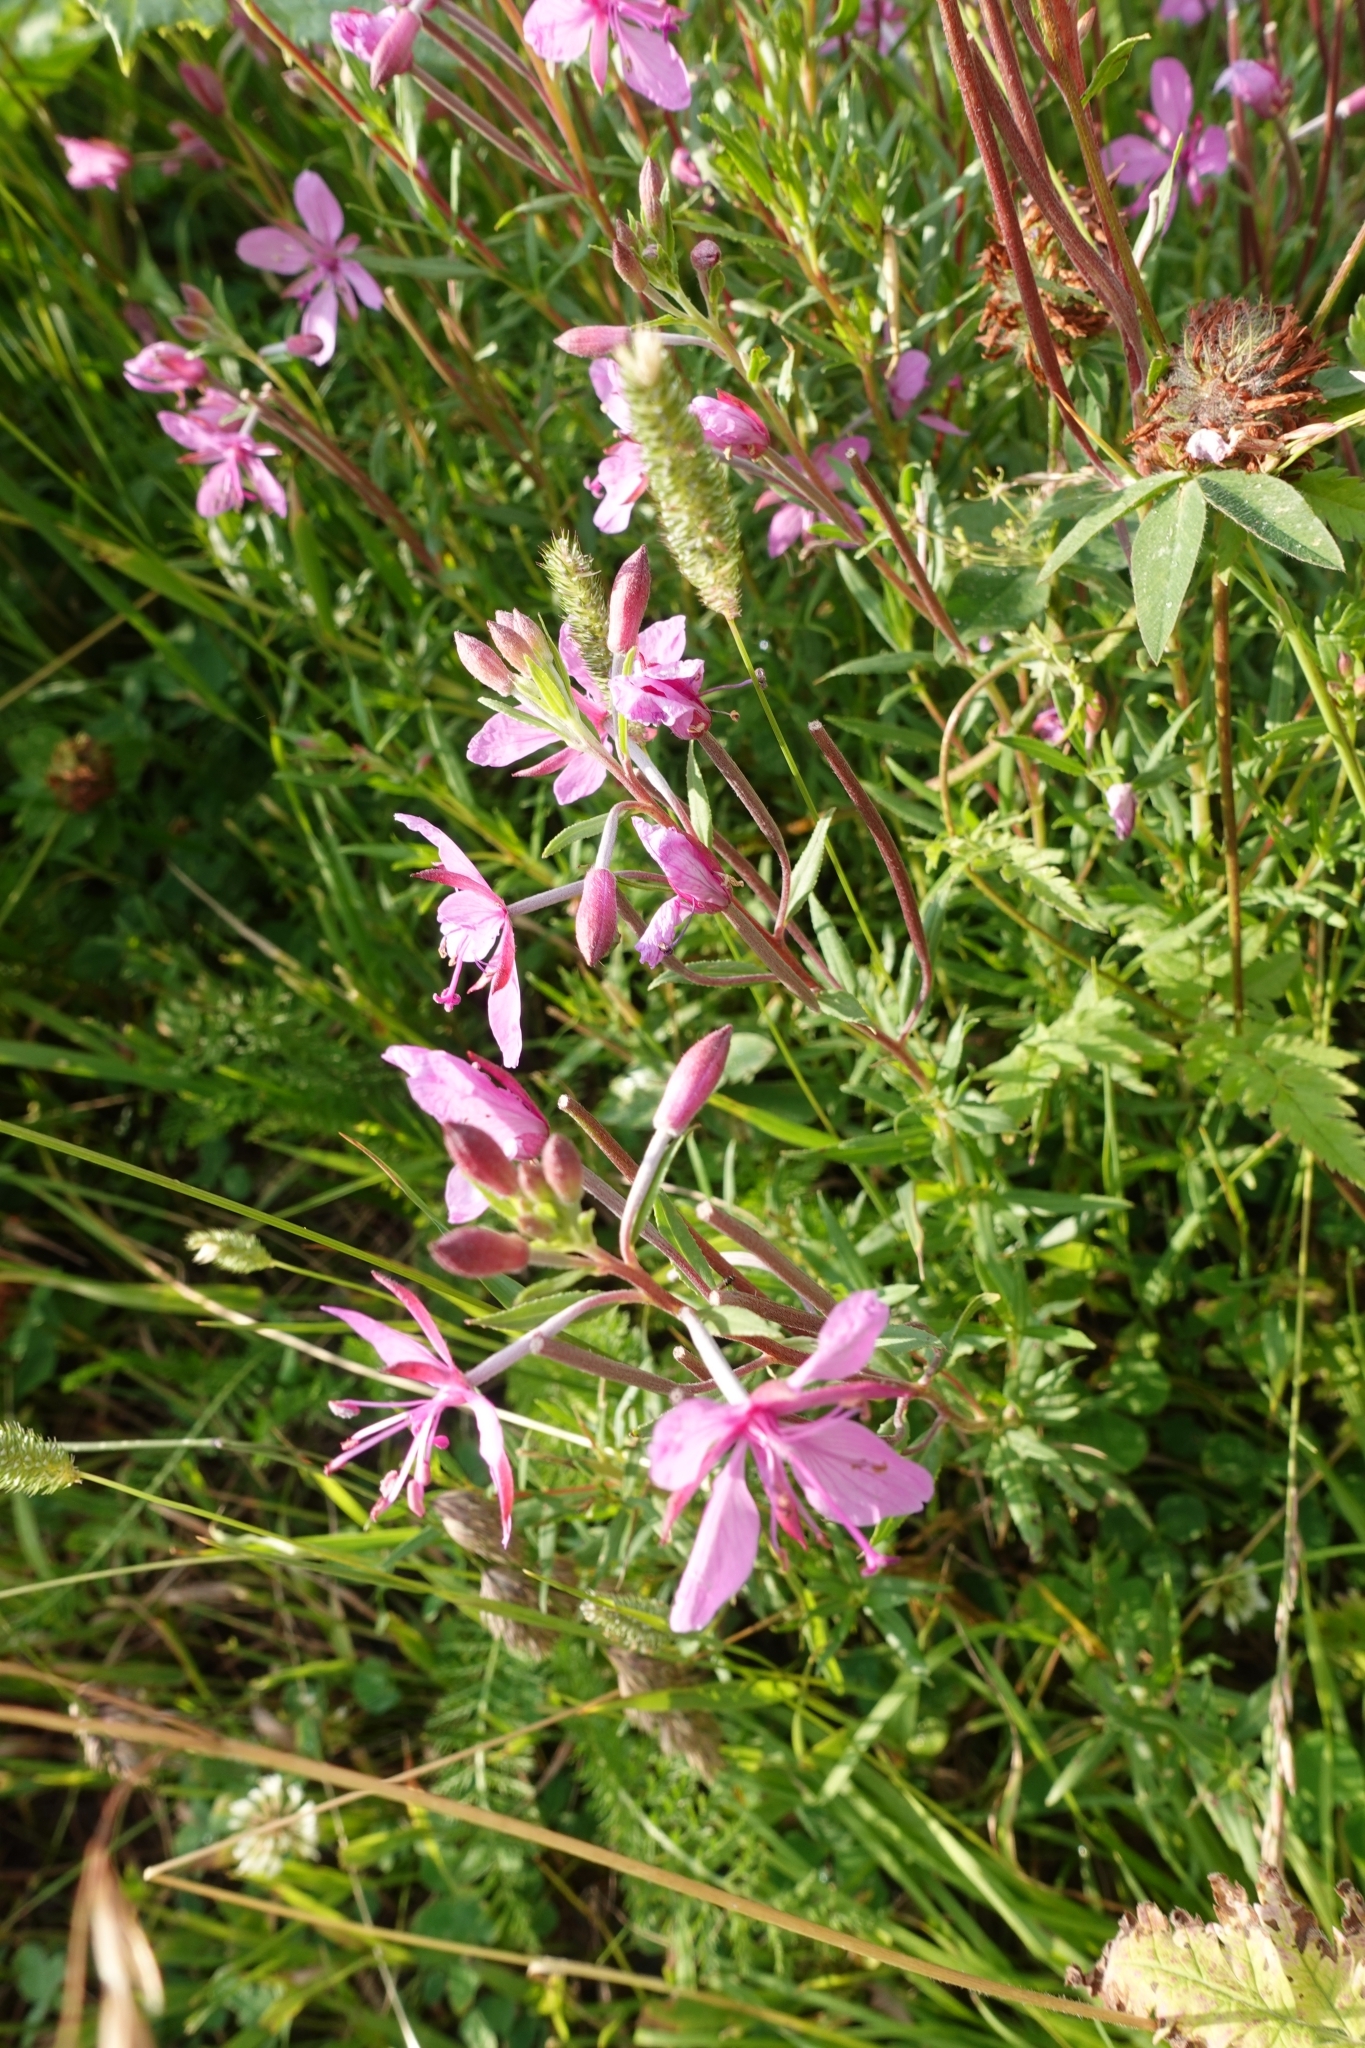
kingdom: Plantae
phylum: Tracheophyta
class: Magnoliopsida
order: Myrtales
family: Onagraceae
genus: Chamaenerion
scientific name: Chamaenerion colchicum
